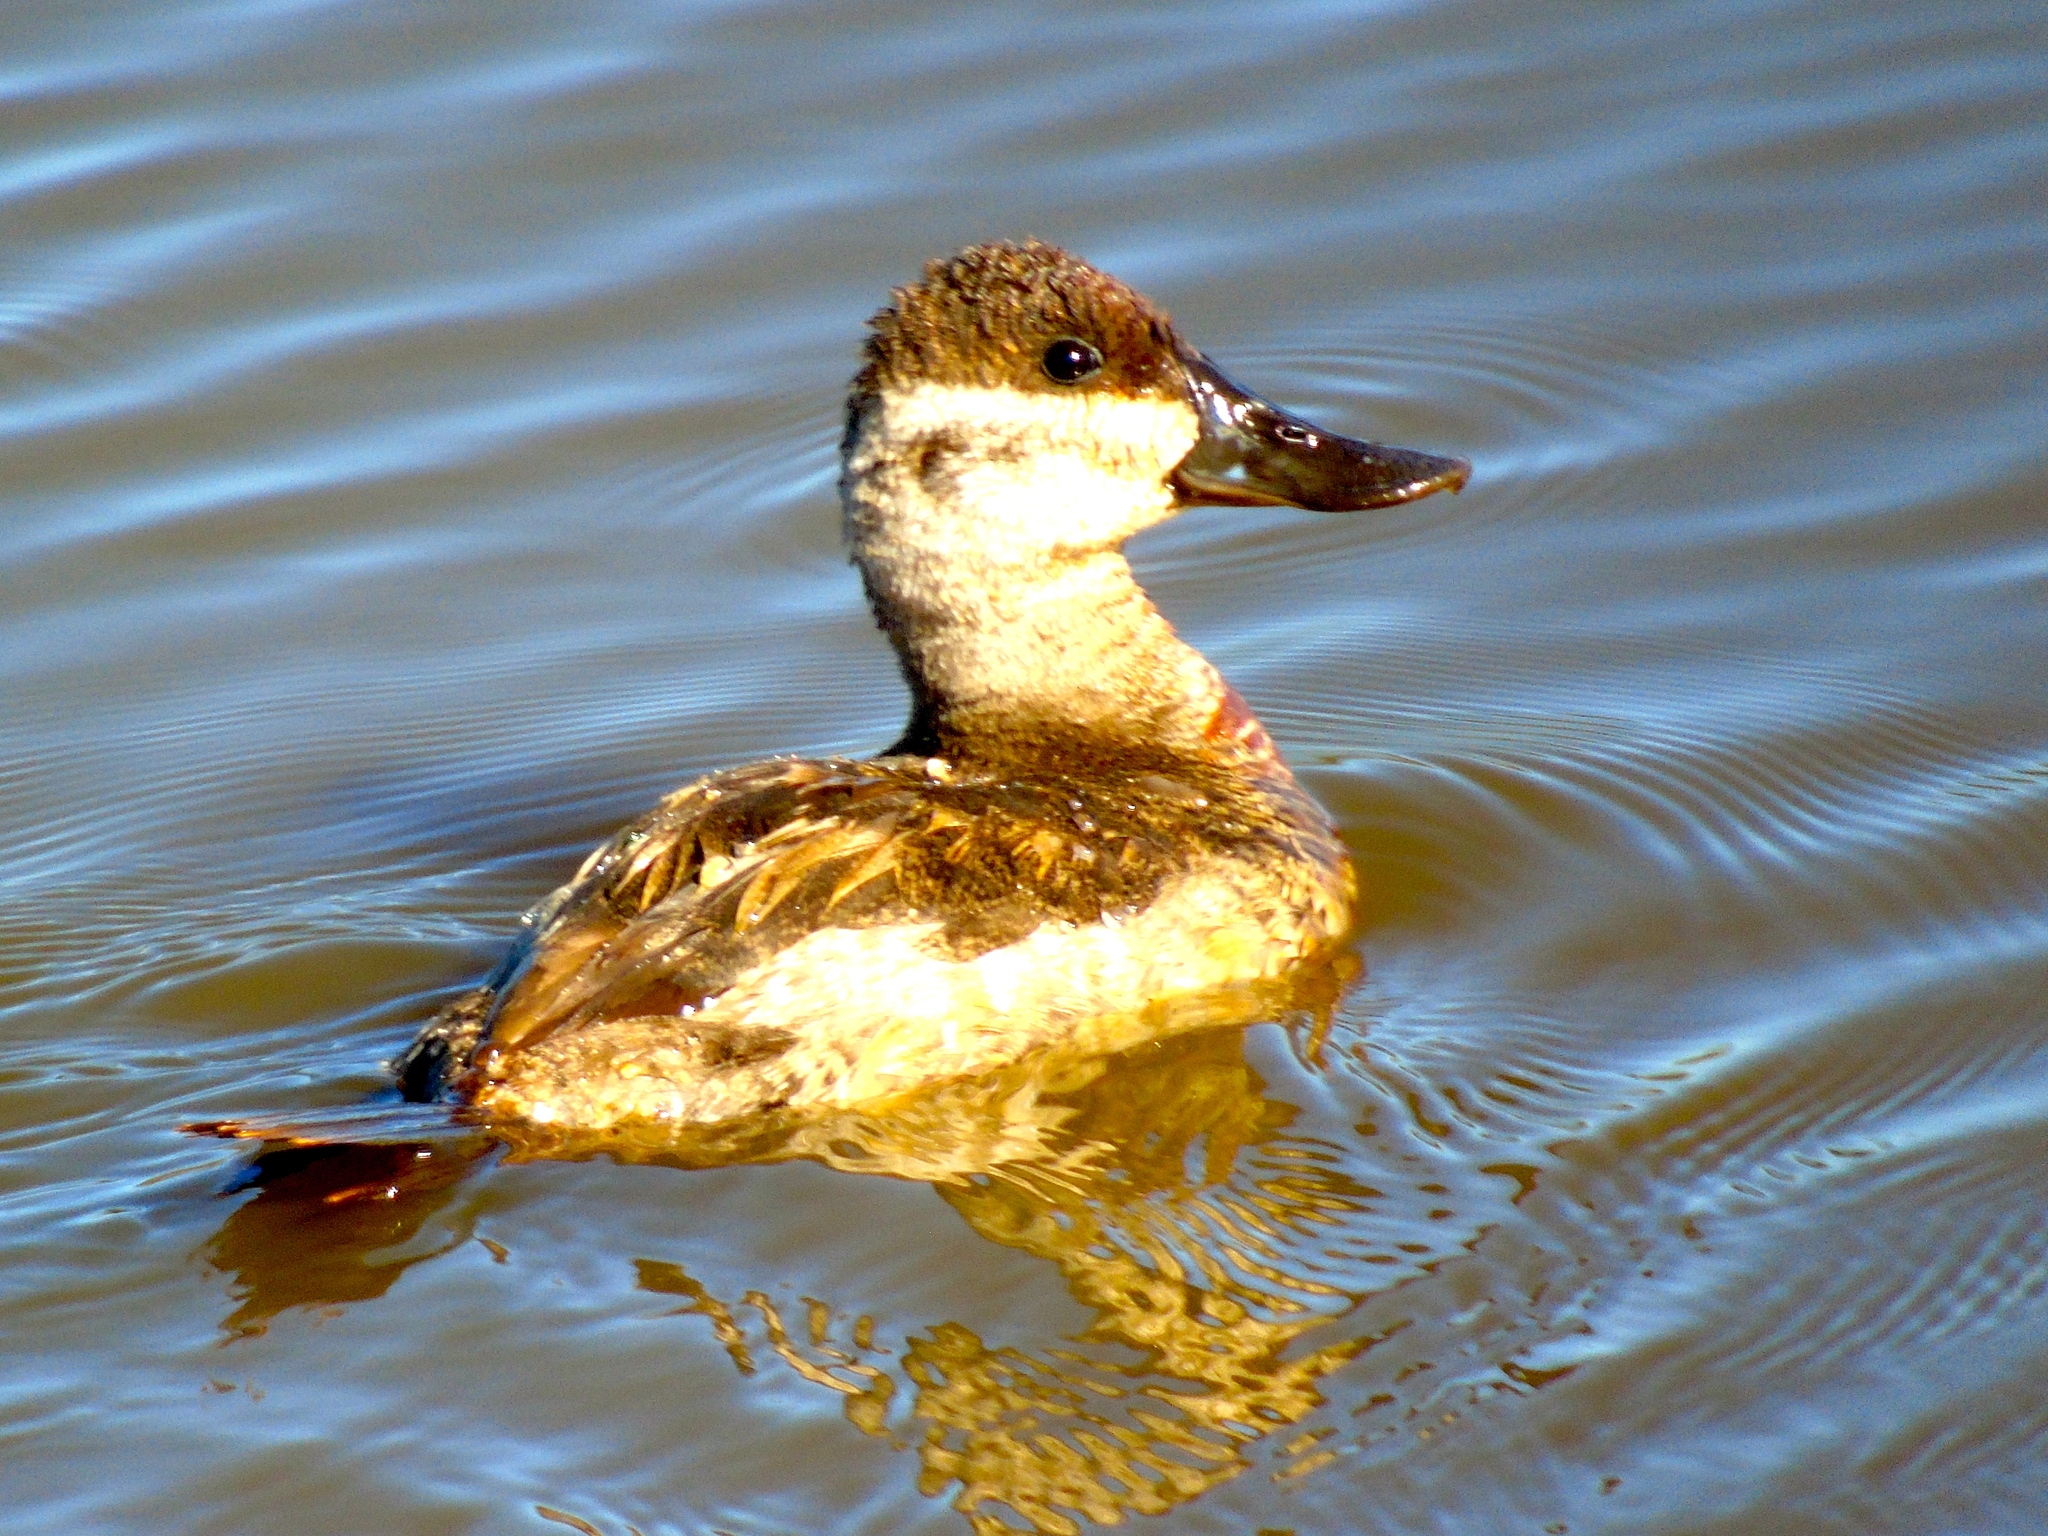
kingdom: Animalia
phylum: Chordata
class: Aves
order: Anseriformes
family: Anatidae
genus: Oxyura
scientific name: Oxyura jamaicensis
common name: Ruddy duck
